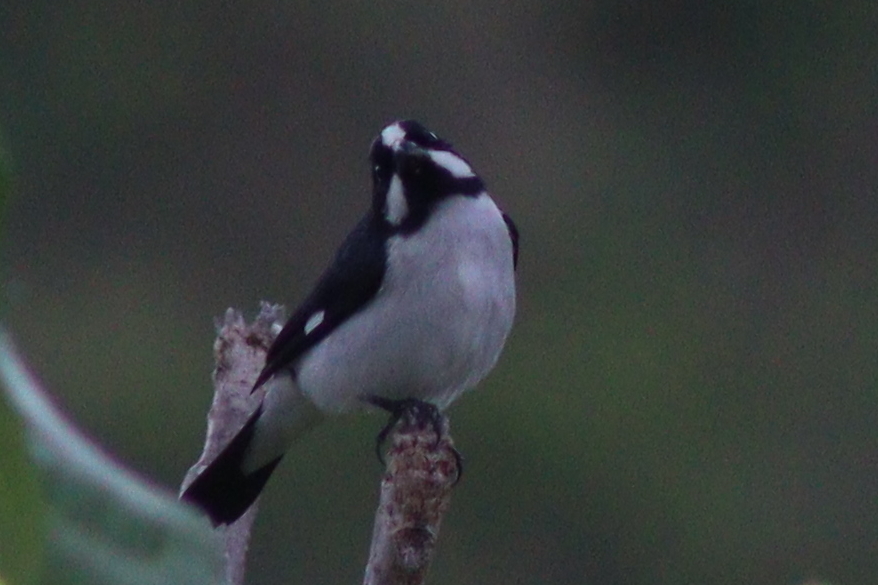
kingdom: Animalia
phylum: Chordata
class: Aves
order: Passeriformes
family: Thraupidae
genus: Sporophila
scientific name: Sporophila lineola
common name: Lined seedeater
